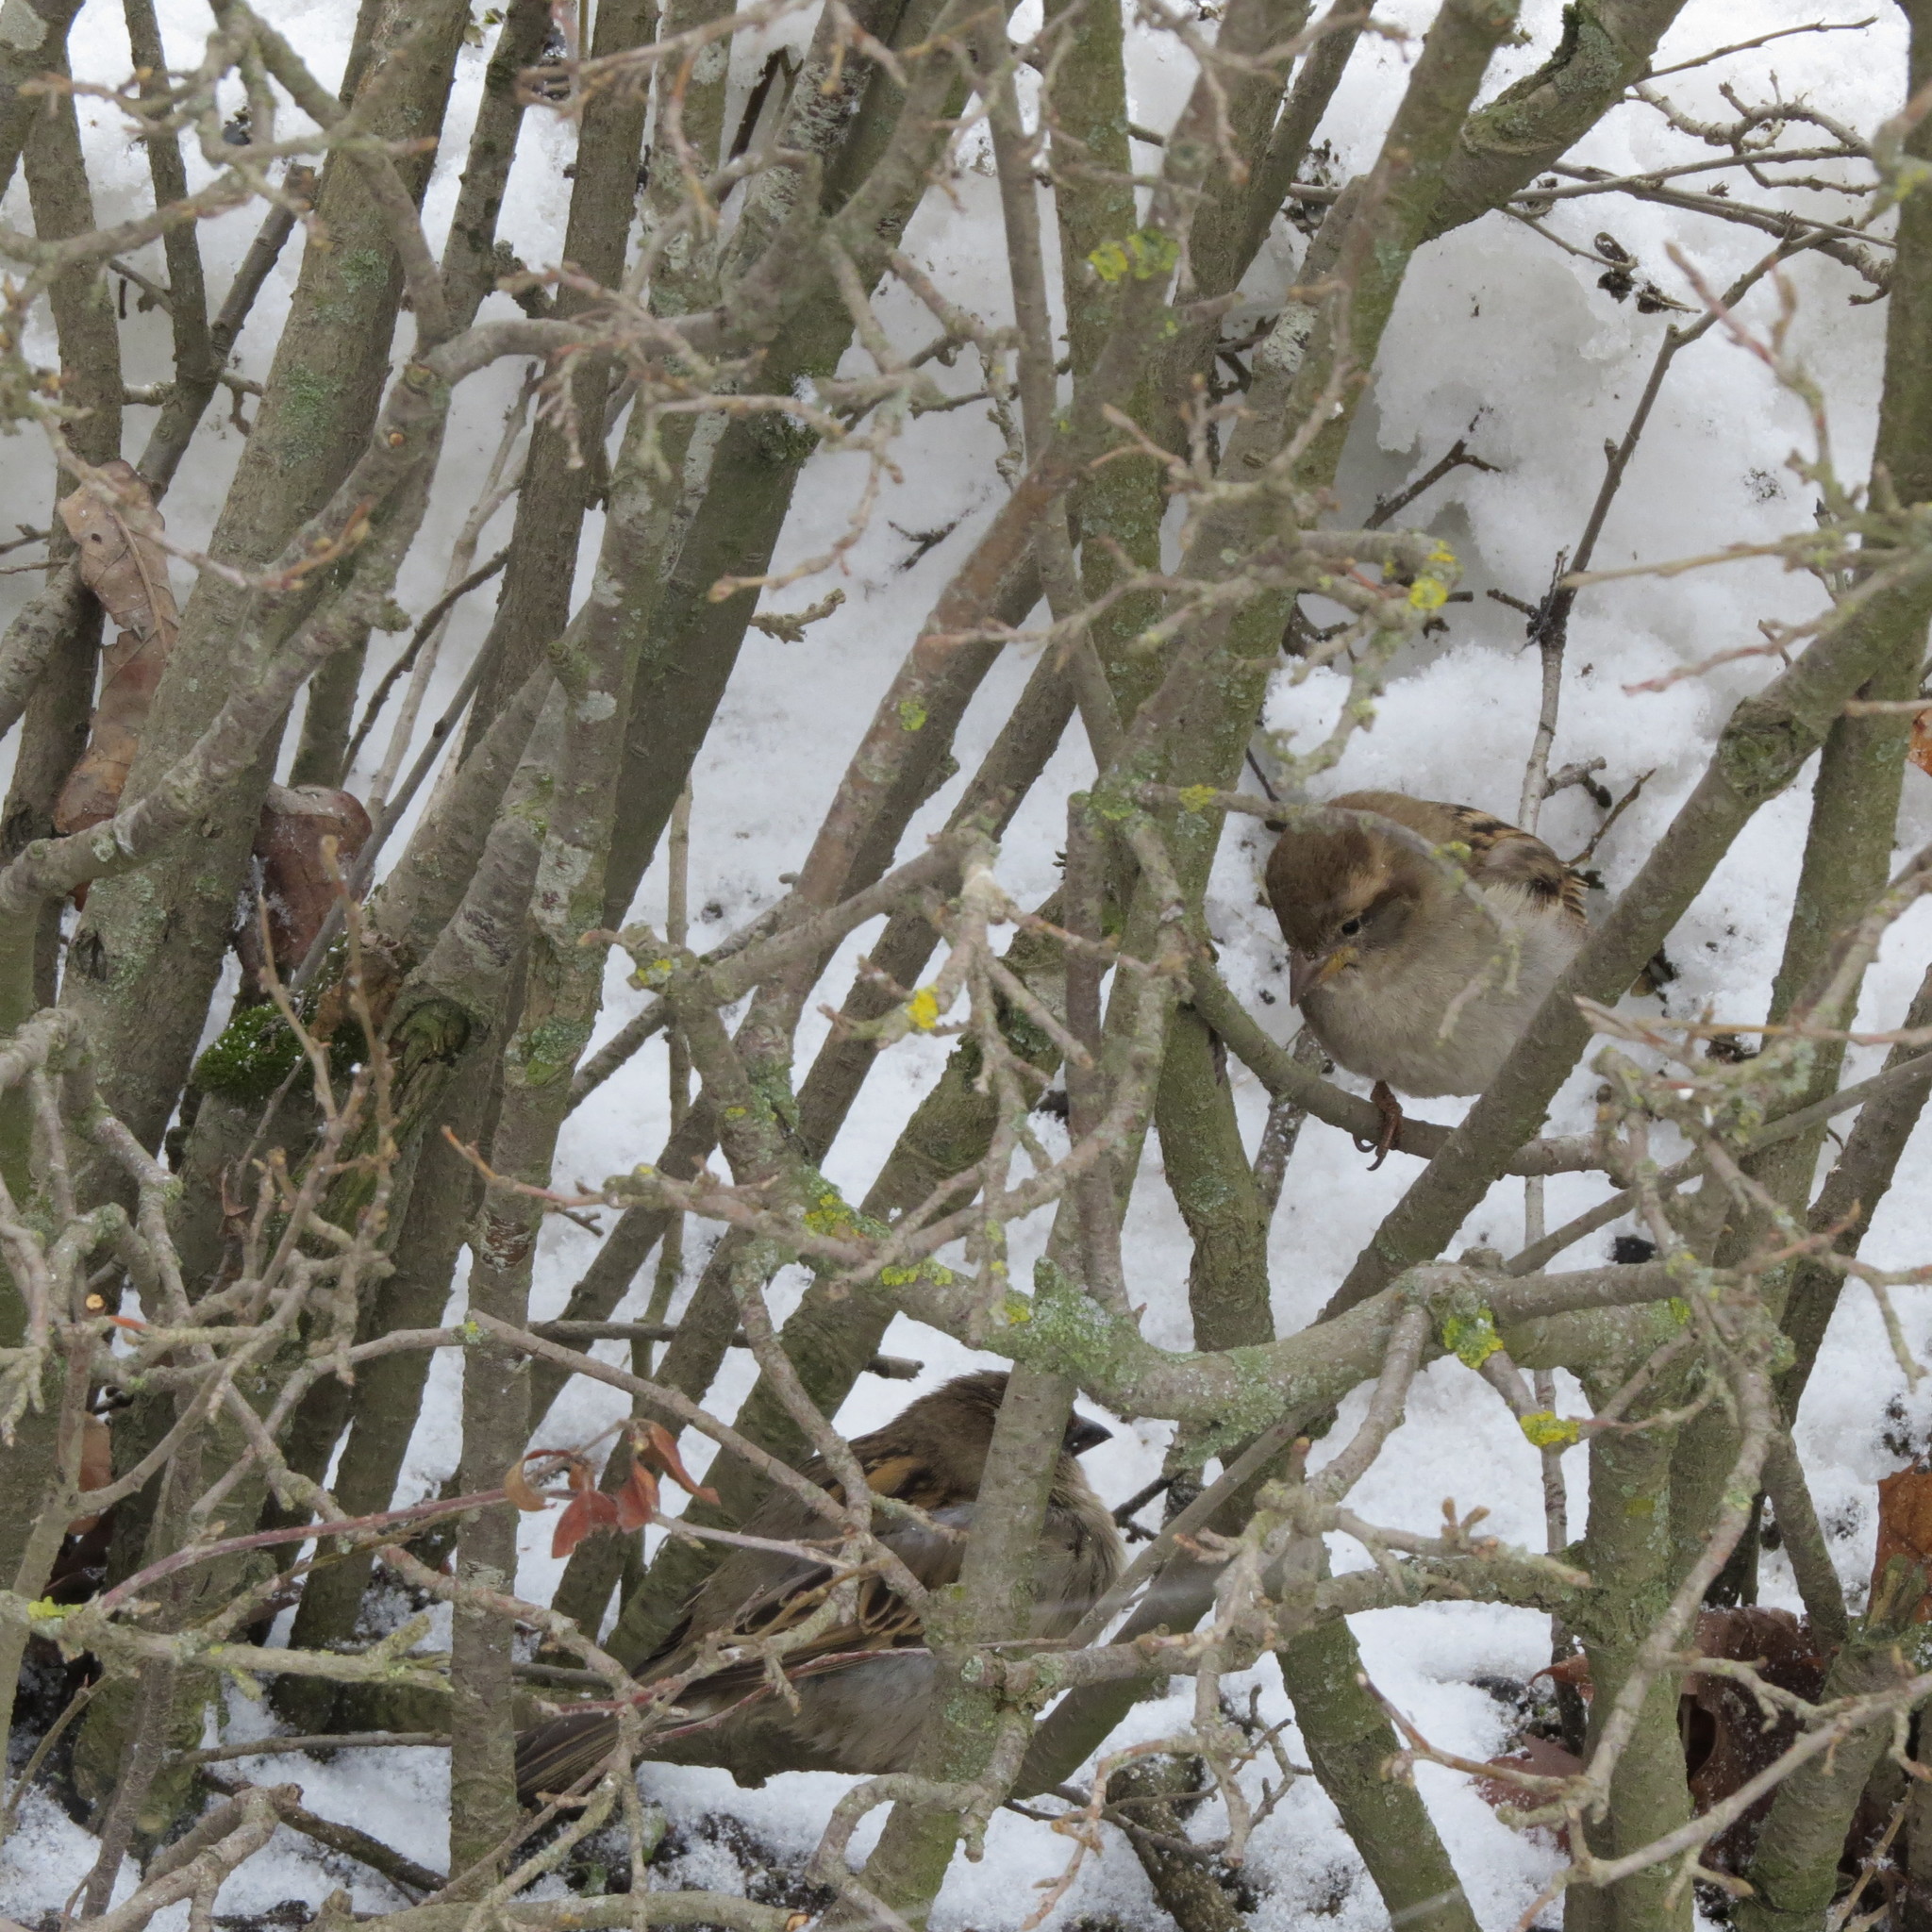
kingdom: Animalia
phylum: Chordata
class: Aves
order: Passeriformes
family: Passeridae
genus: Passer
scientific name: Passer domesticus
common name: House sparrow
